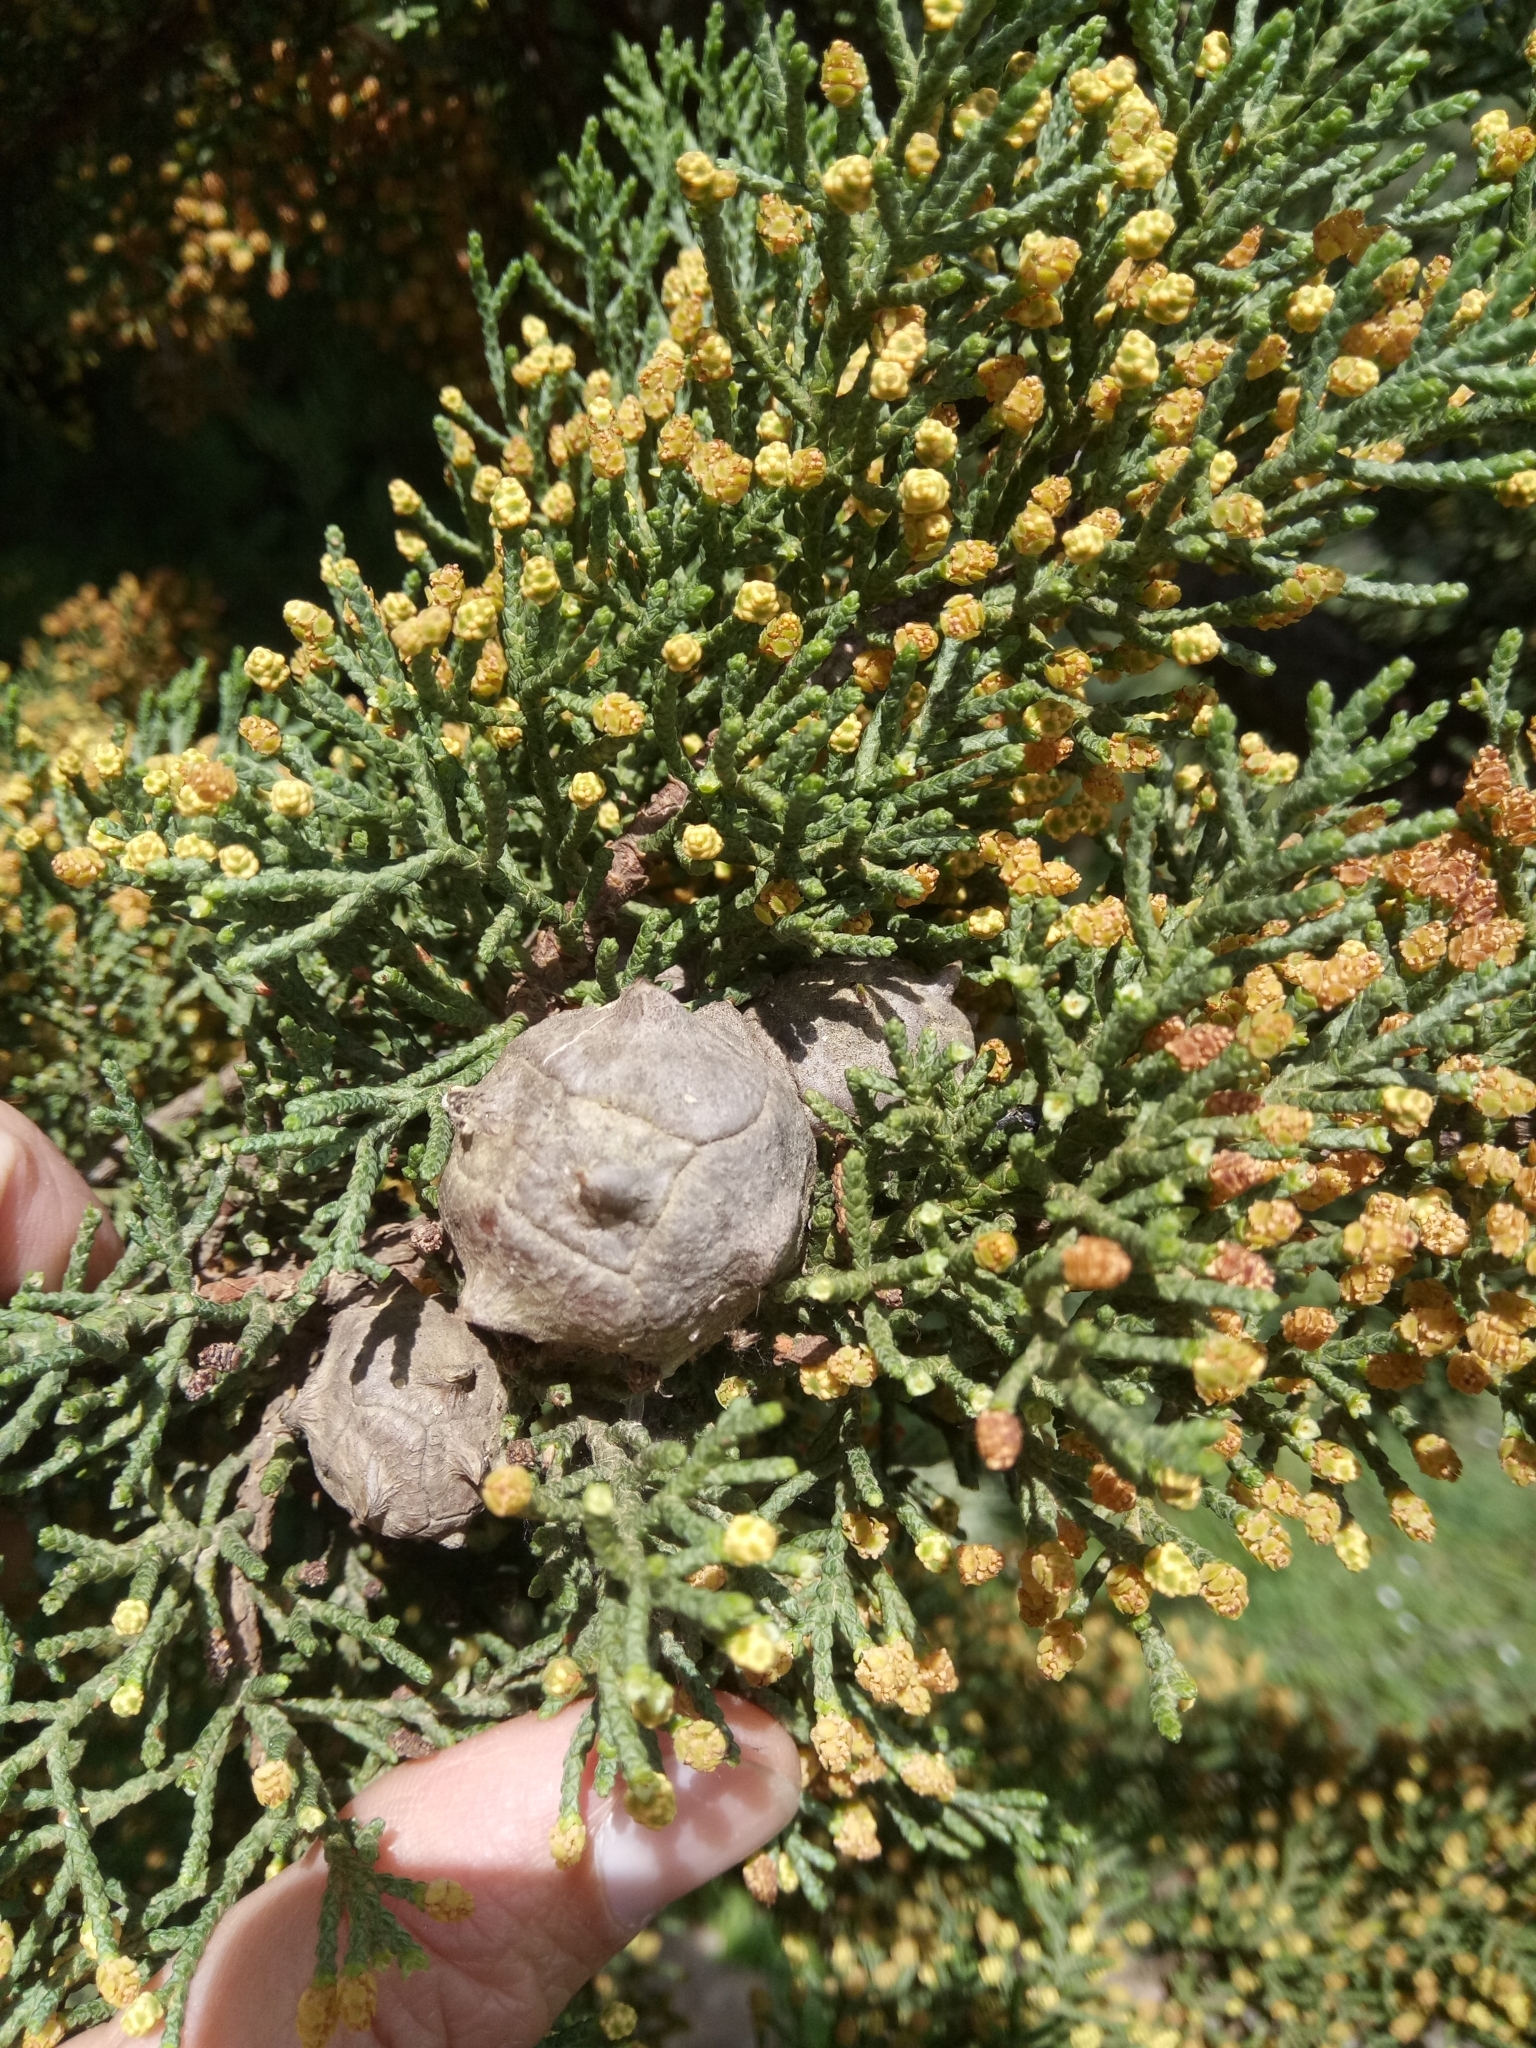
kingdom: Plantae
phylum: Tracheophyta
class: Pinopsida
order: Pinales
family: Cupressaceae
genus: Cupressus
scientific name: Cupressus arizonica
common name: Arizona cypress
